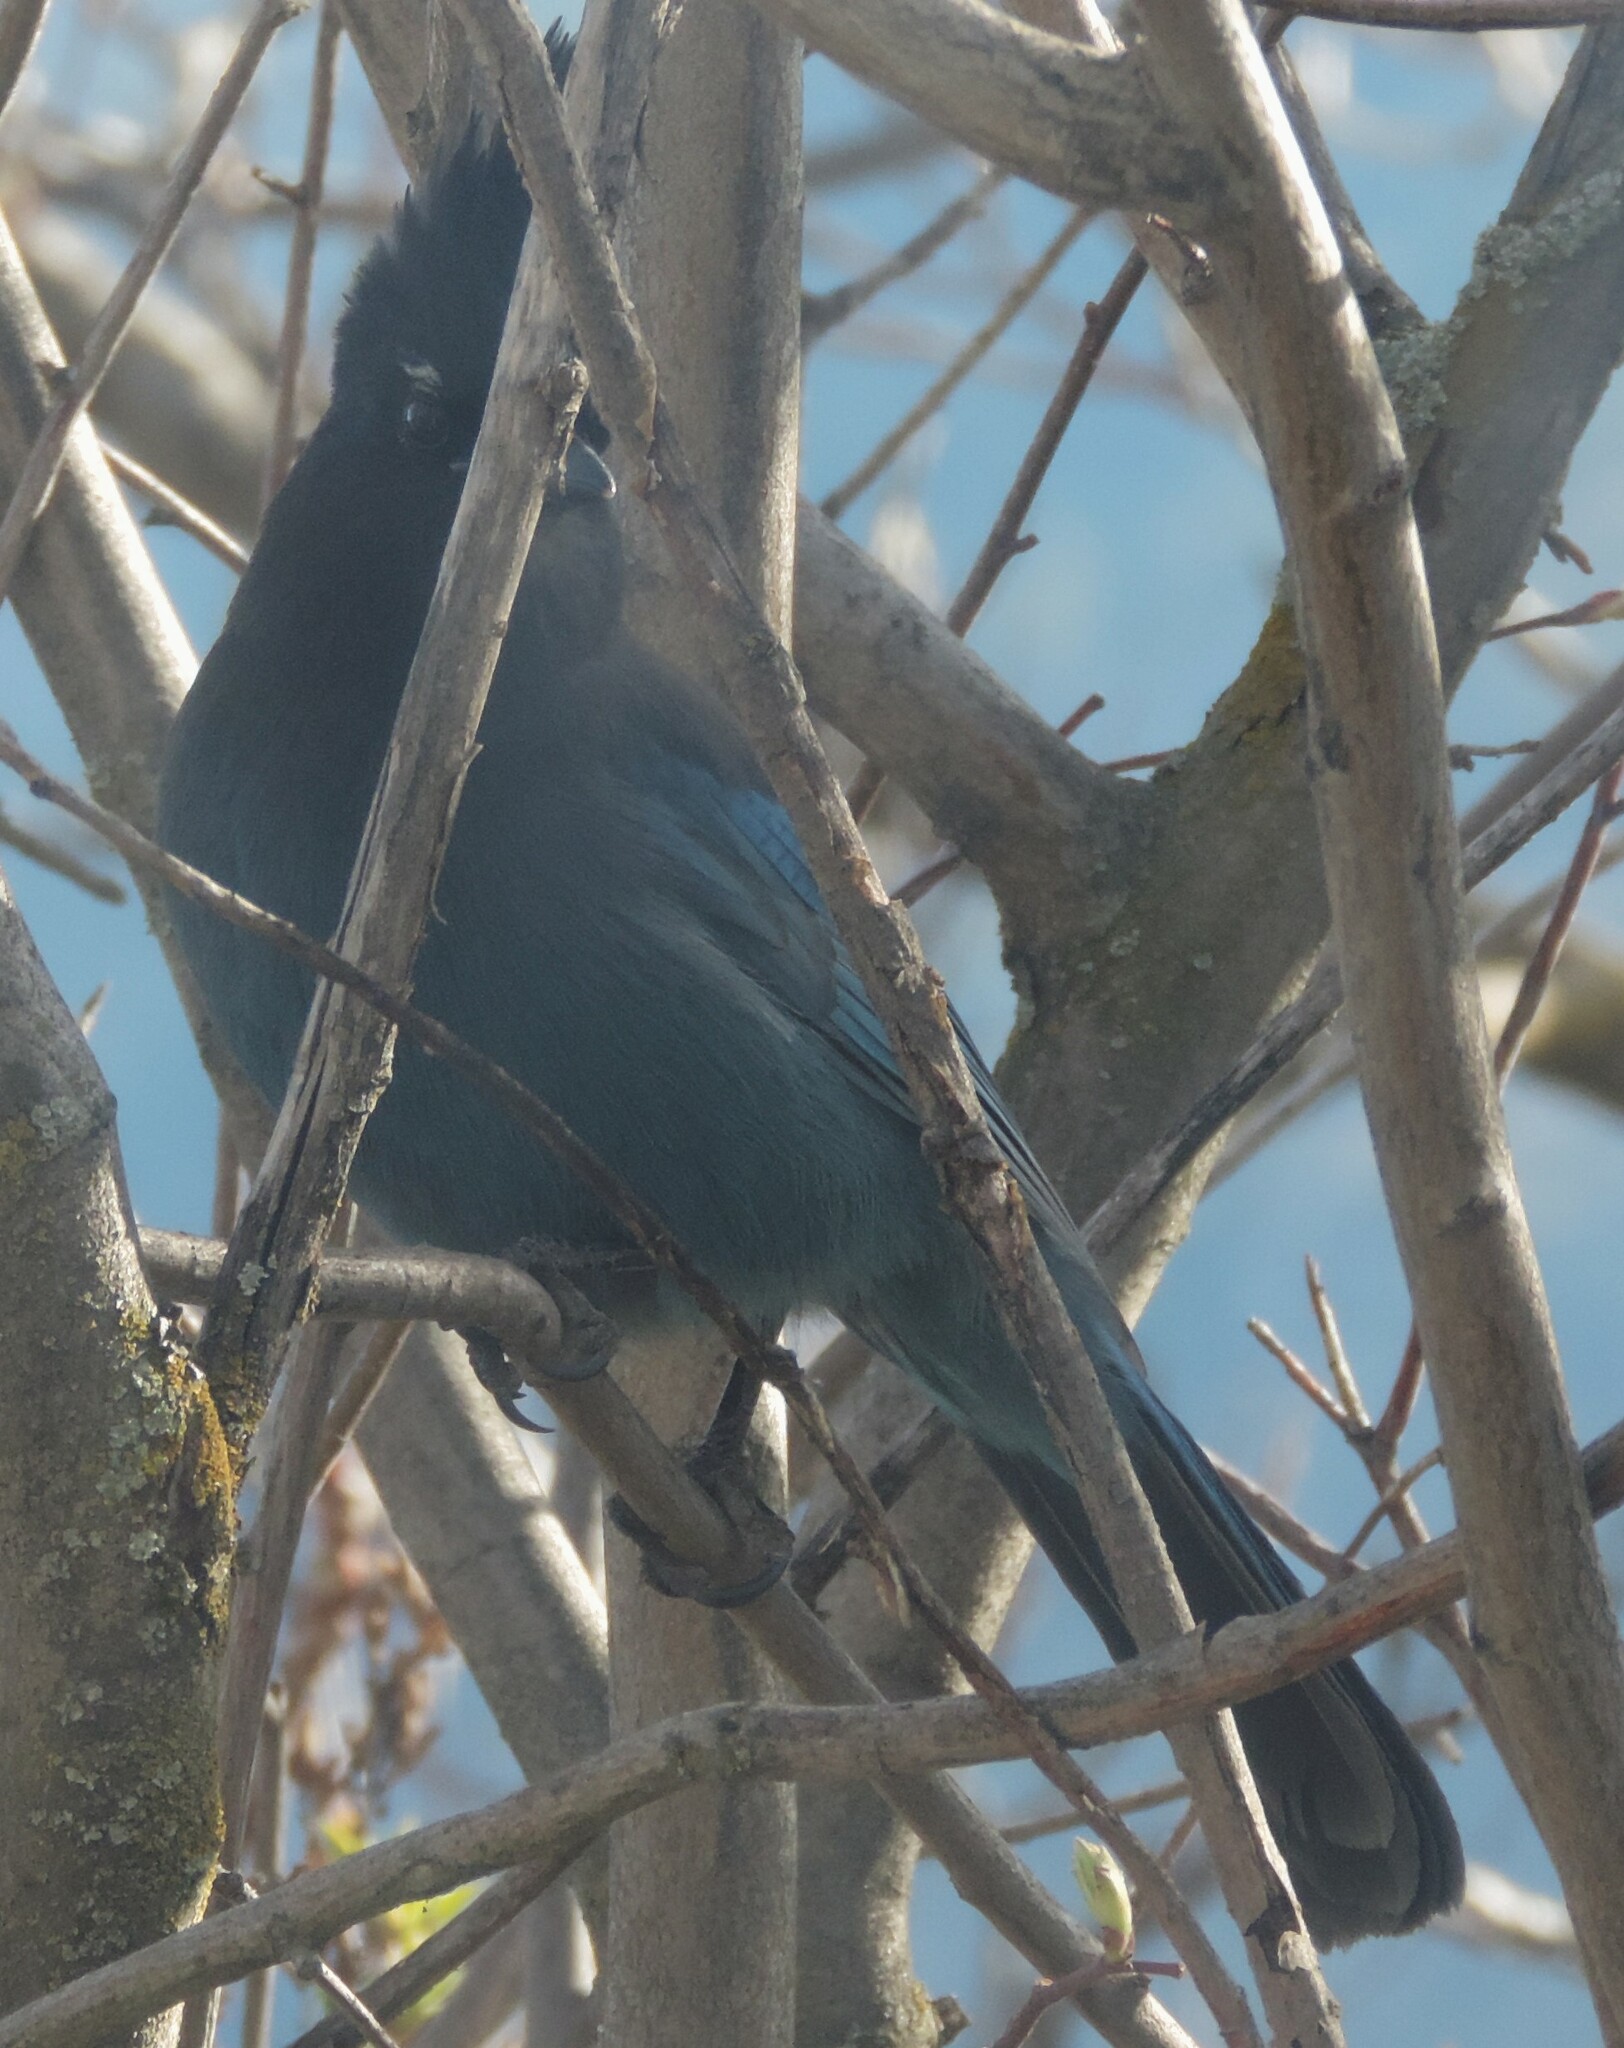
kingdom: Animalia
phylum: Chordata
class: Aves
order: Passeriformes
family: Corvidae
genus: Cyanocitta
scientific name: Cyanocitta stelleri
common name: Steller's jay
